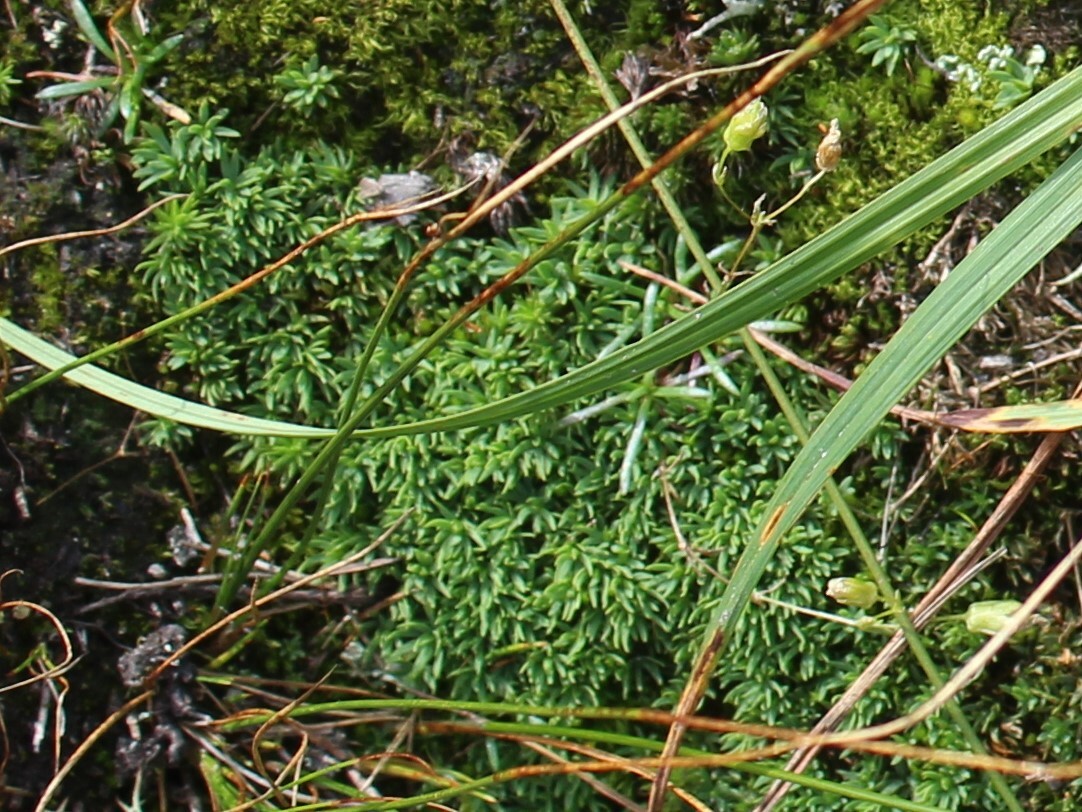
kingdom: Plantae
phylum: Tracheophyta
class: Magnoliopsida
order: Caryophyllales
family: Caryophyllaceae
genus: Geocarpon
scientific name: Geocarpon groenlandicum
